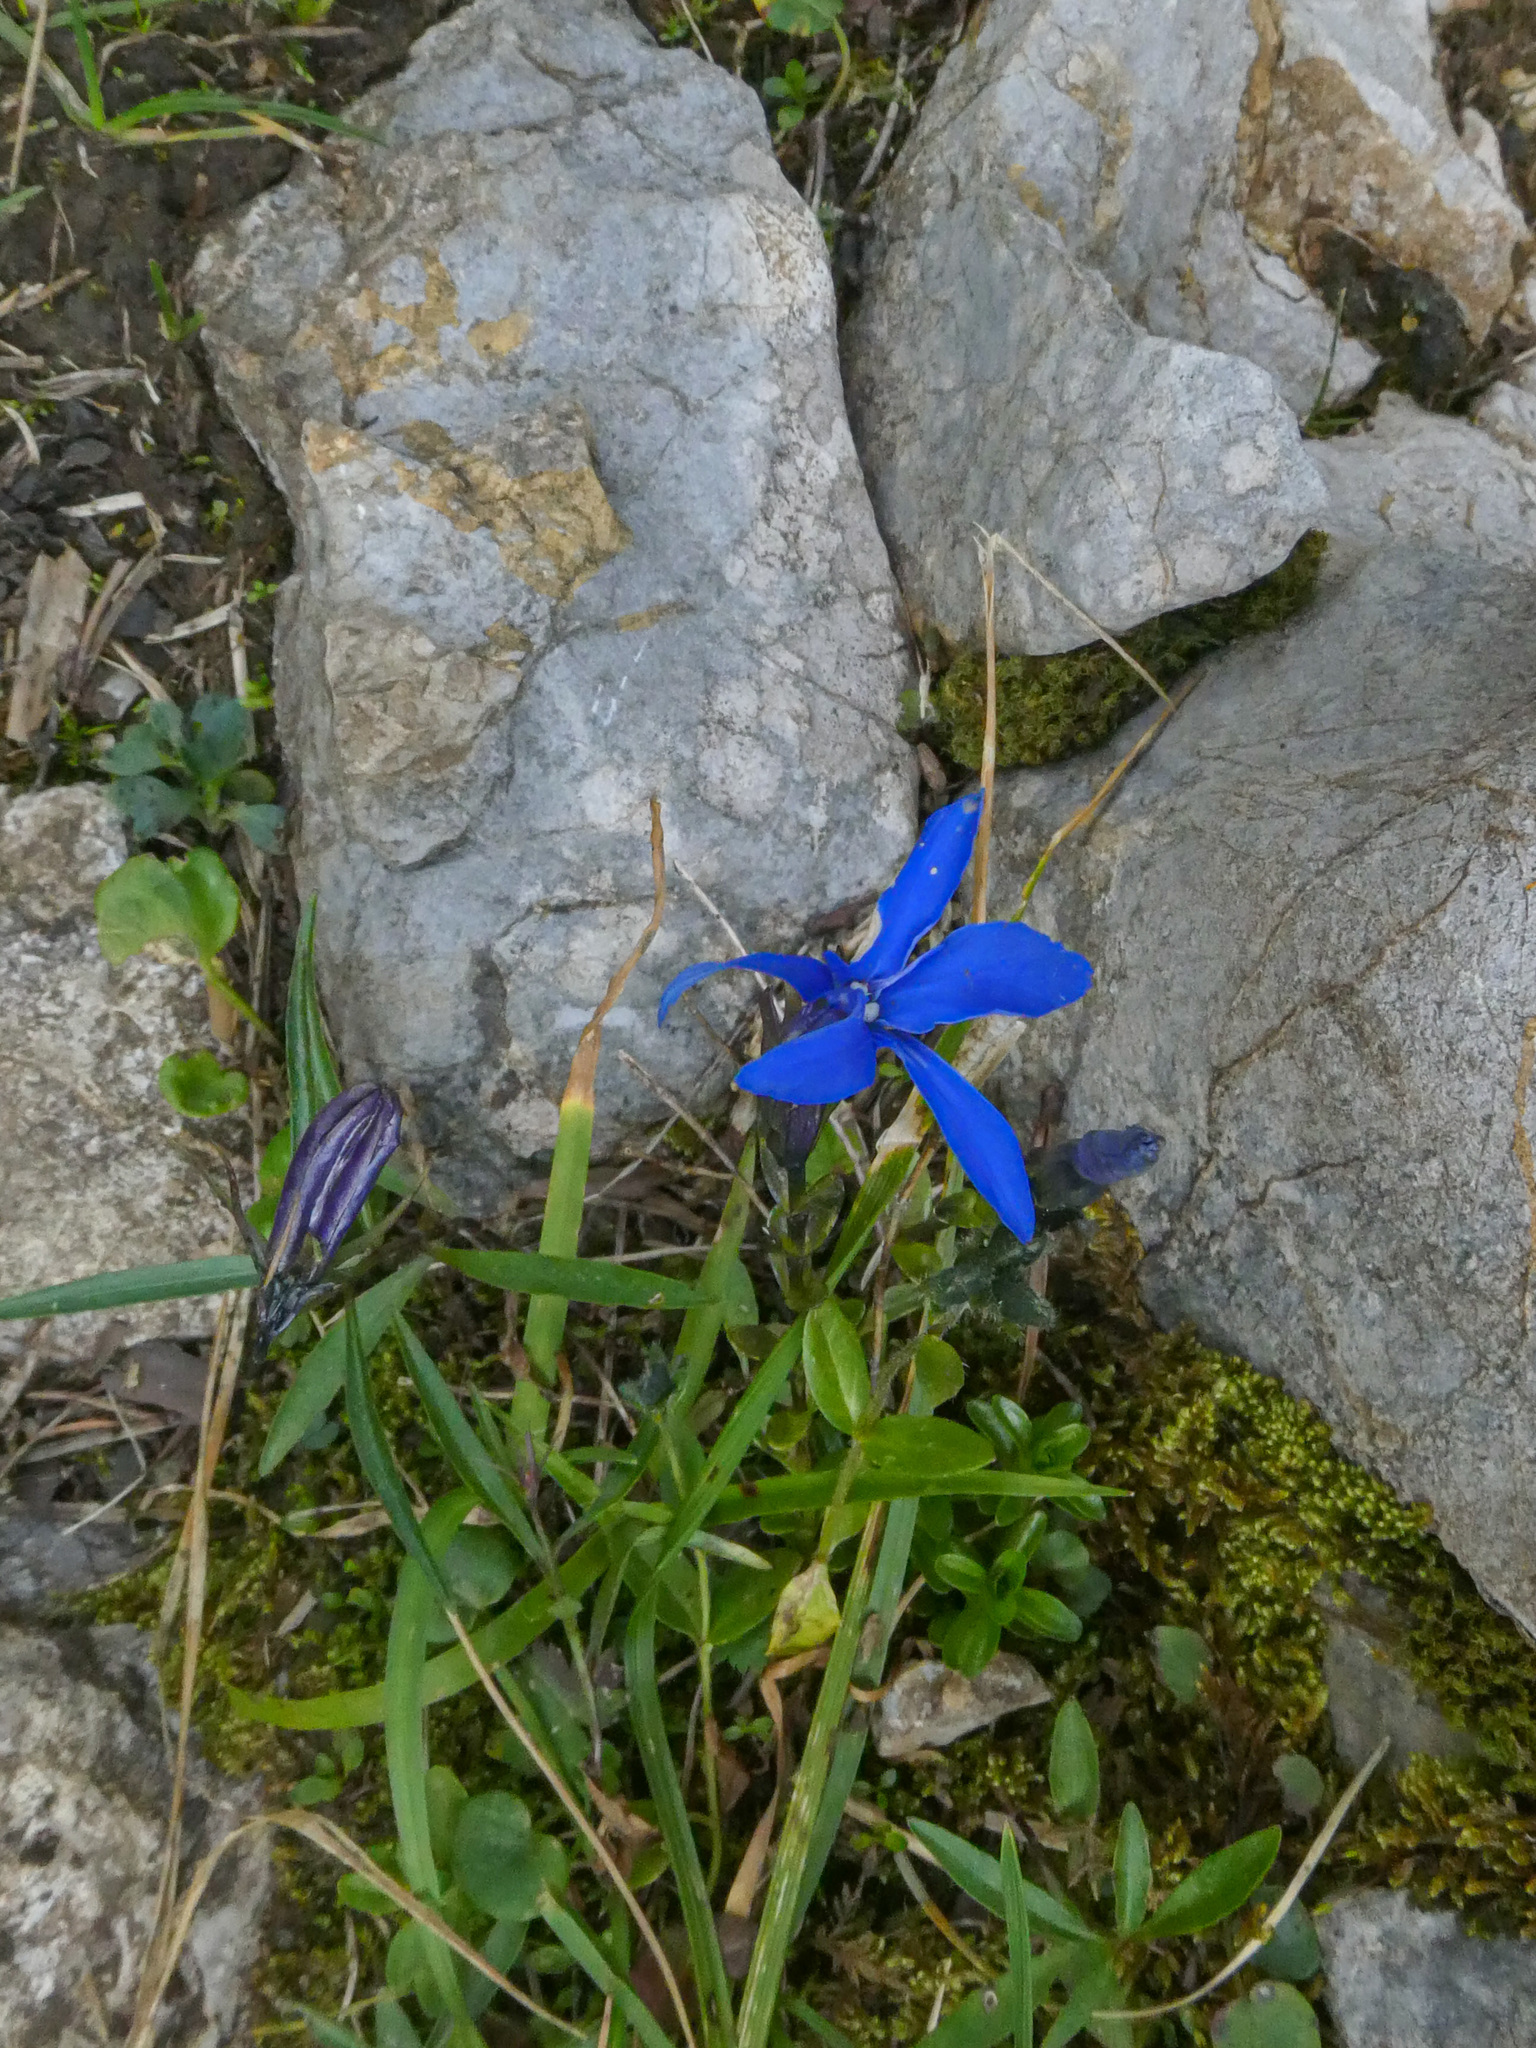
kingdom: Plantae
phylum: Tracheophyta
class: Magnoliopsida
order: Gentianales
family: Gentianaceae
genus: Gentiana
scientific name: Gentiana bavarica
